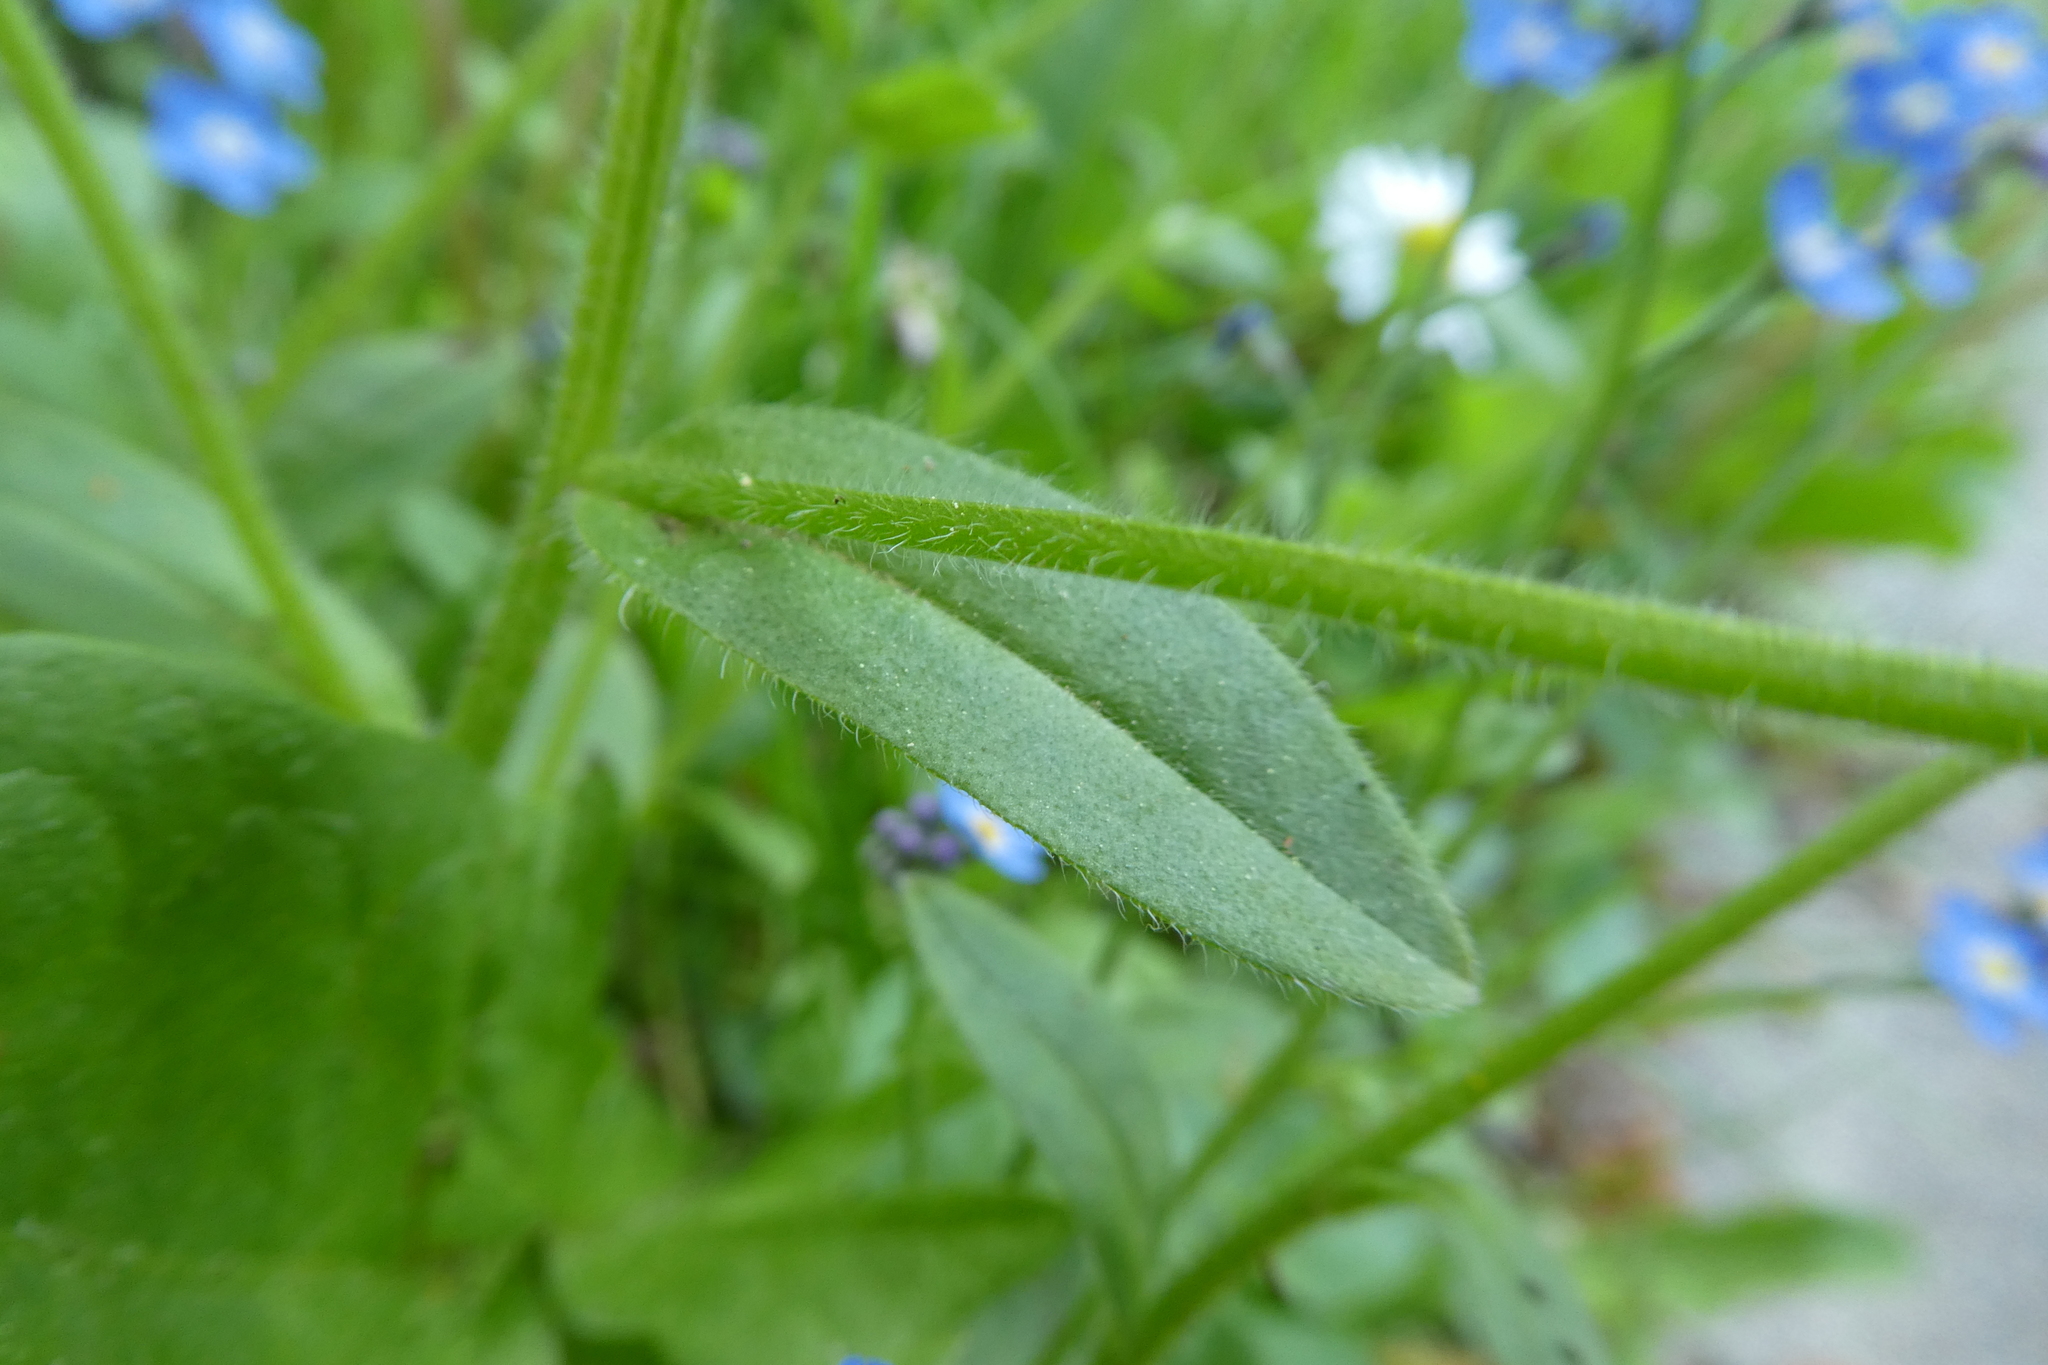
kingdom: Plantae
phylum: Tracheophyta
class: Magnoliopsida
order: Boraginales
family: Boraginaceae
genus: Myosotis
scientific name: Myosotis sylvatica
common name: Wood forget-me-not
